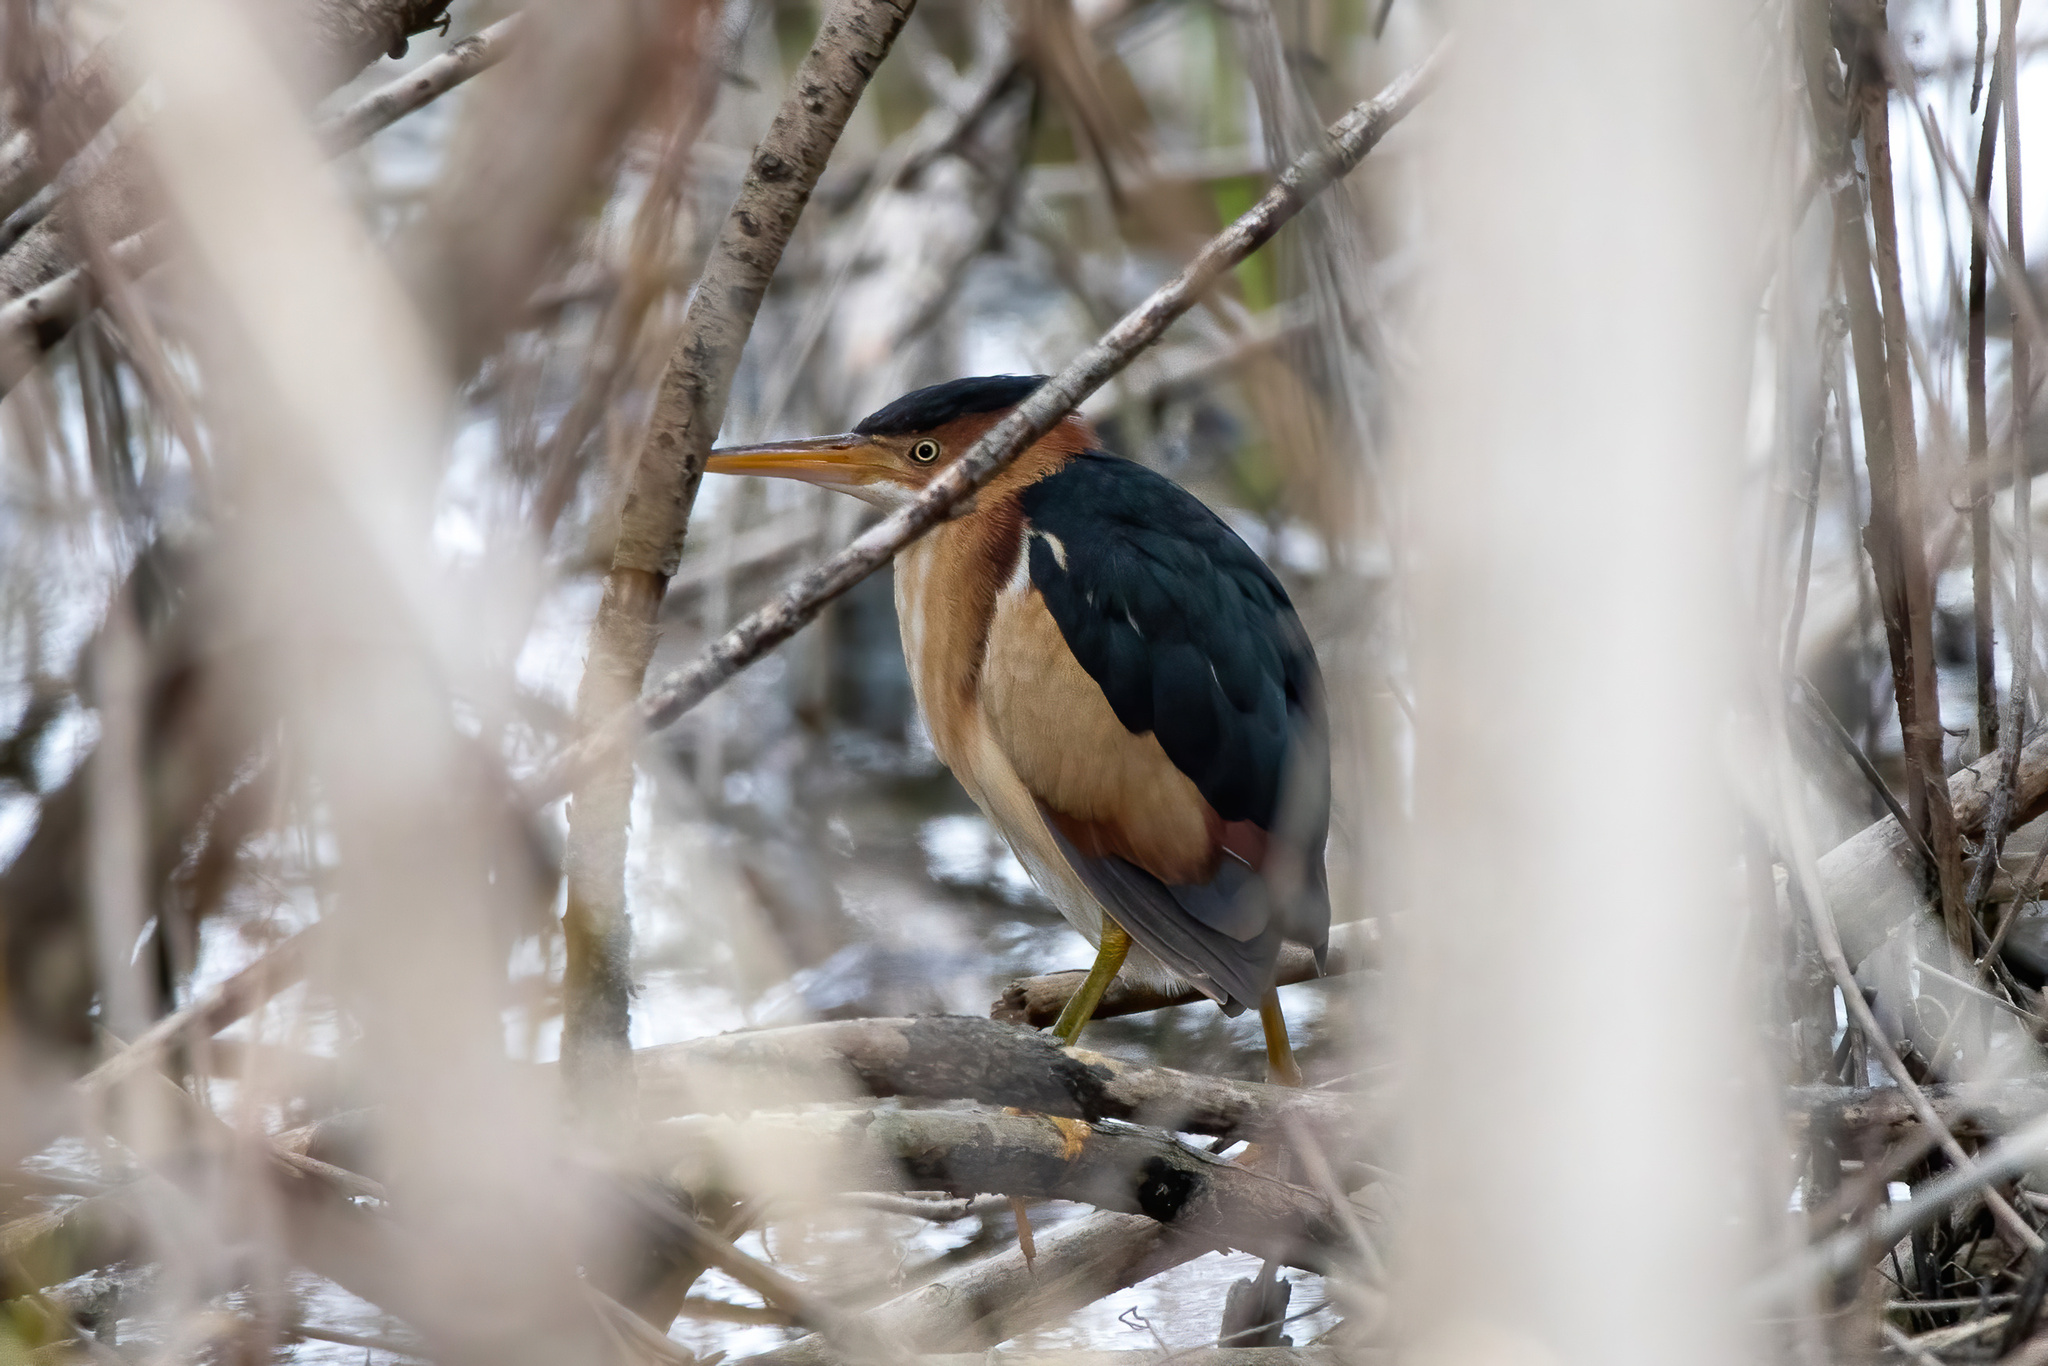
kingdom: Animalia
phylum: Chordata
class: Aves
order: Pelecaniformes
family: Ardeidae
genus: Ixobrychus
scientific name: Ixobrychus exilis
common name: Least bittern
